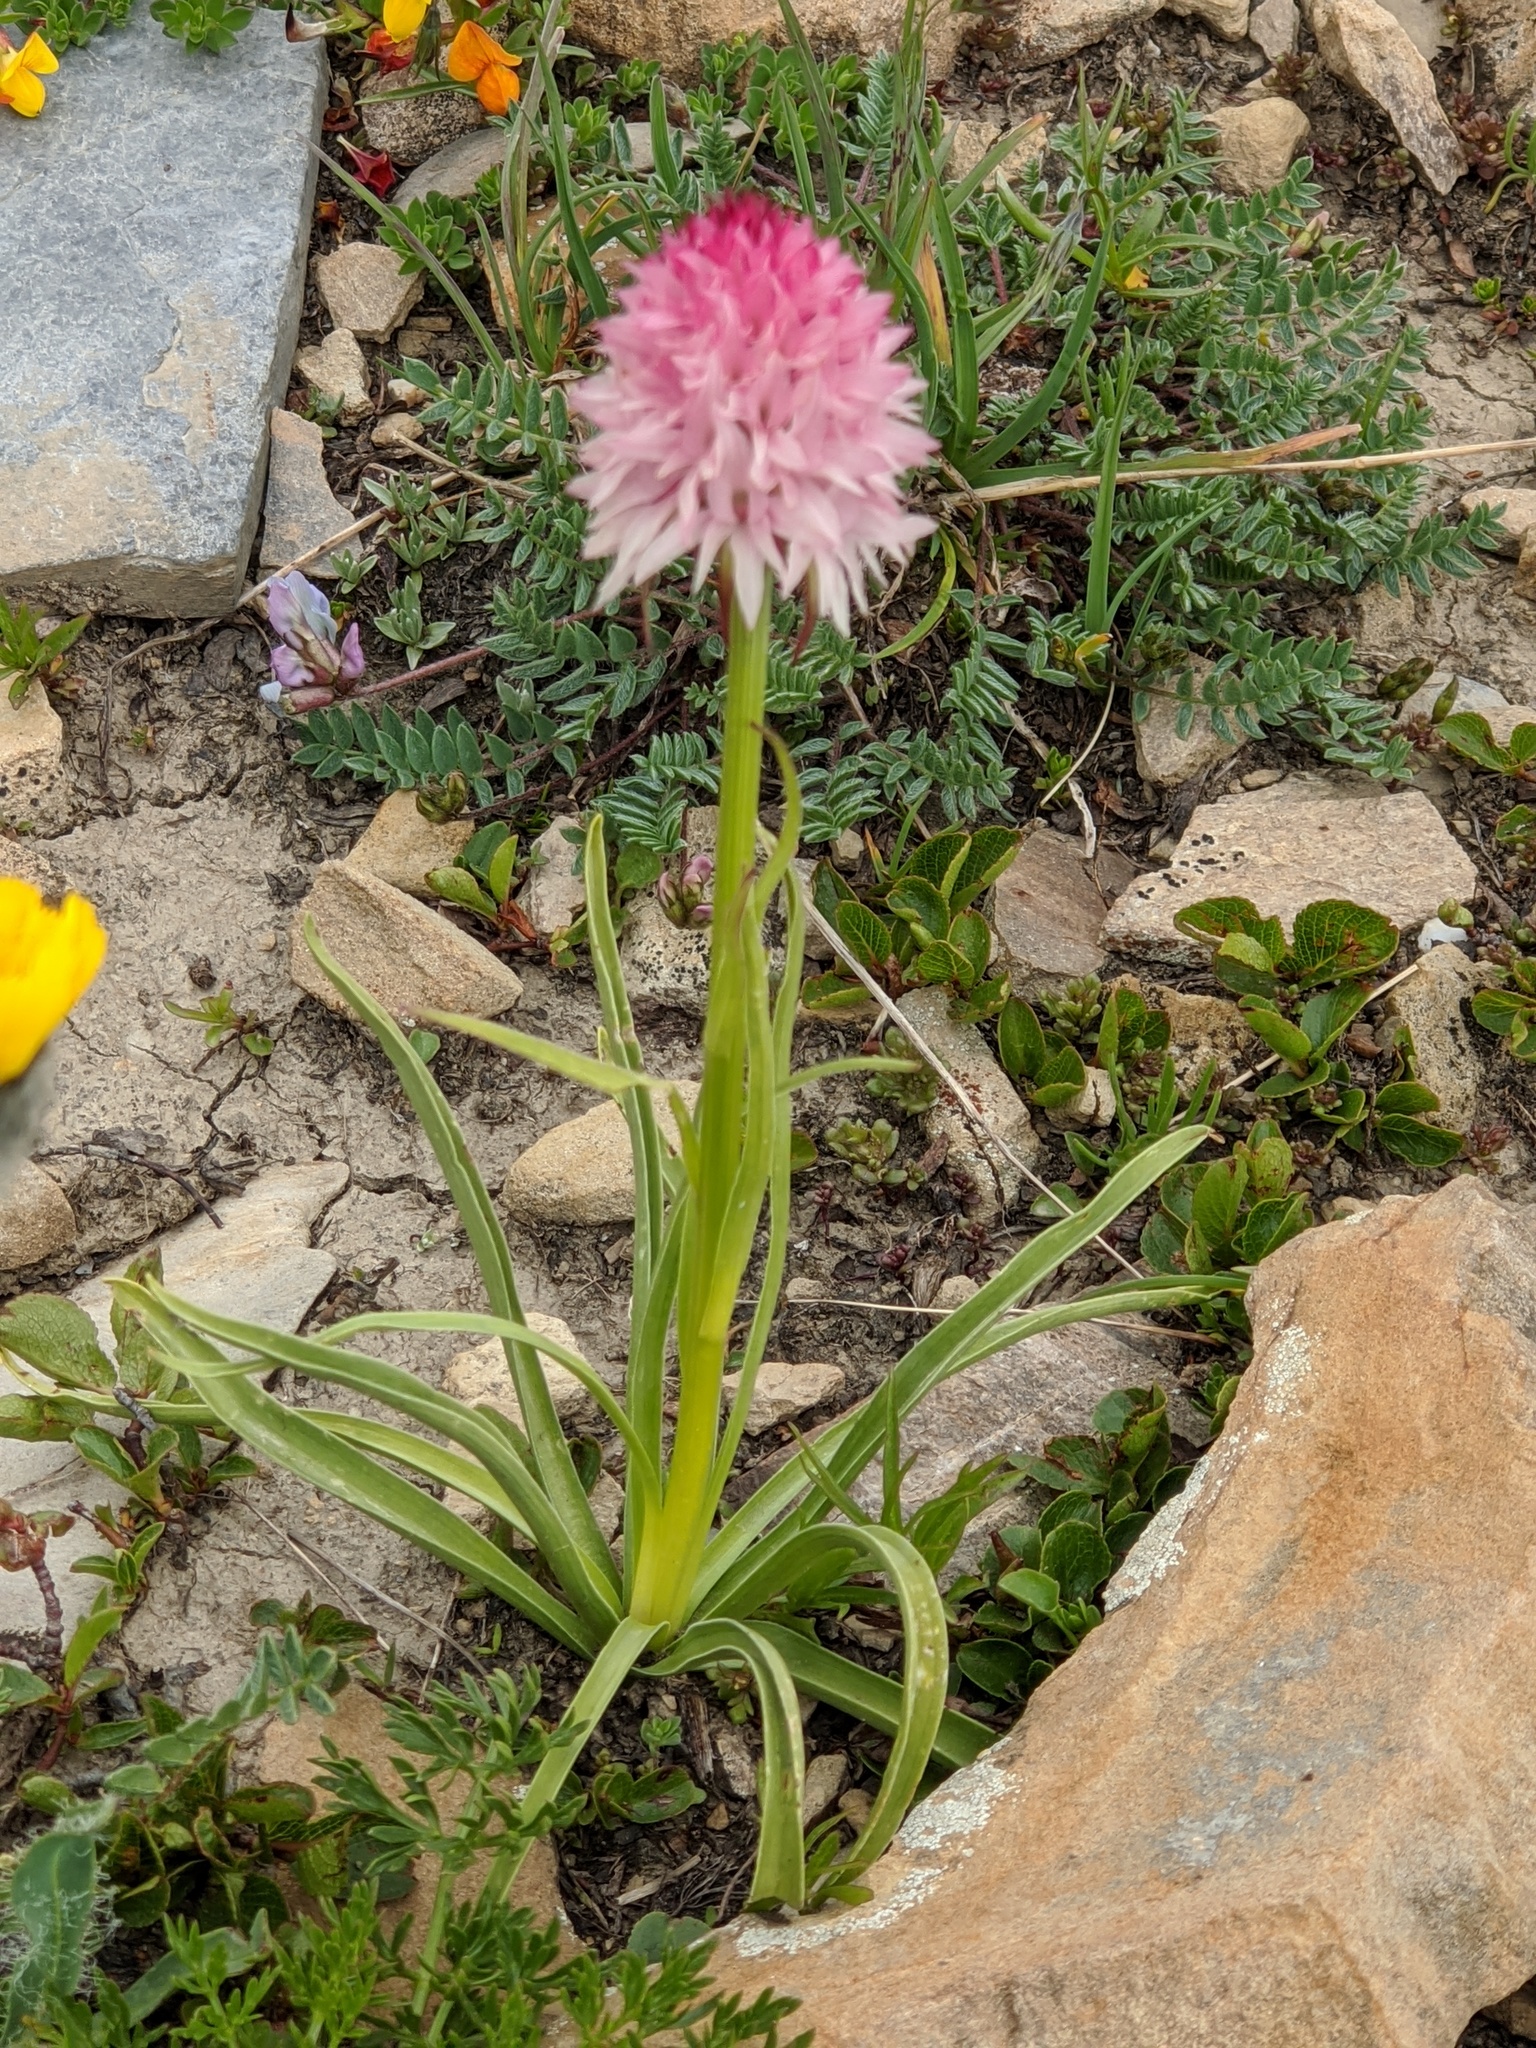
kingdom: Plantae
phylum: Tracheophyta
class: Liliopsida
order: Asparagales
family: Orchidaceae
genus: Gymnadenia
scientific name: Gymnadenia corneliana
